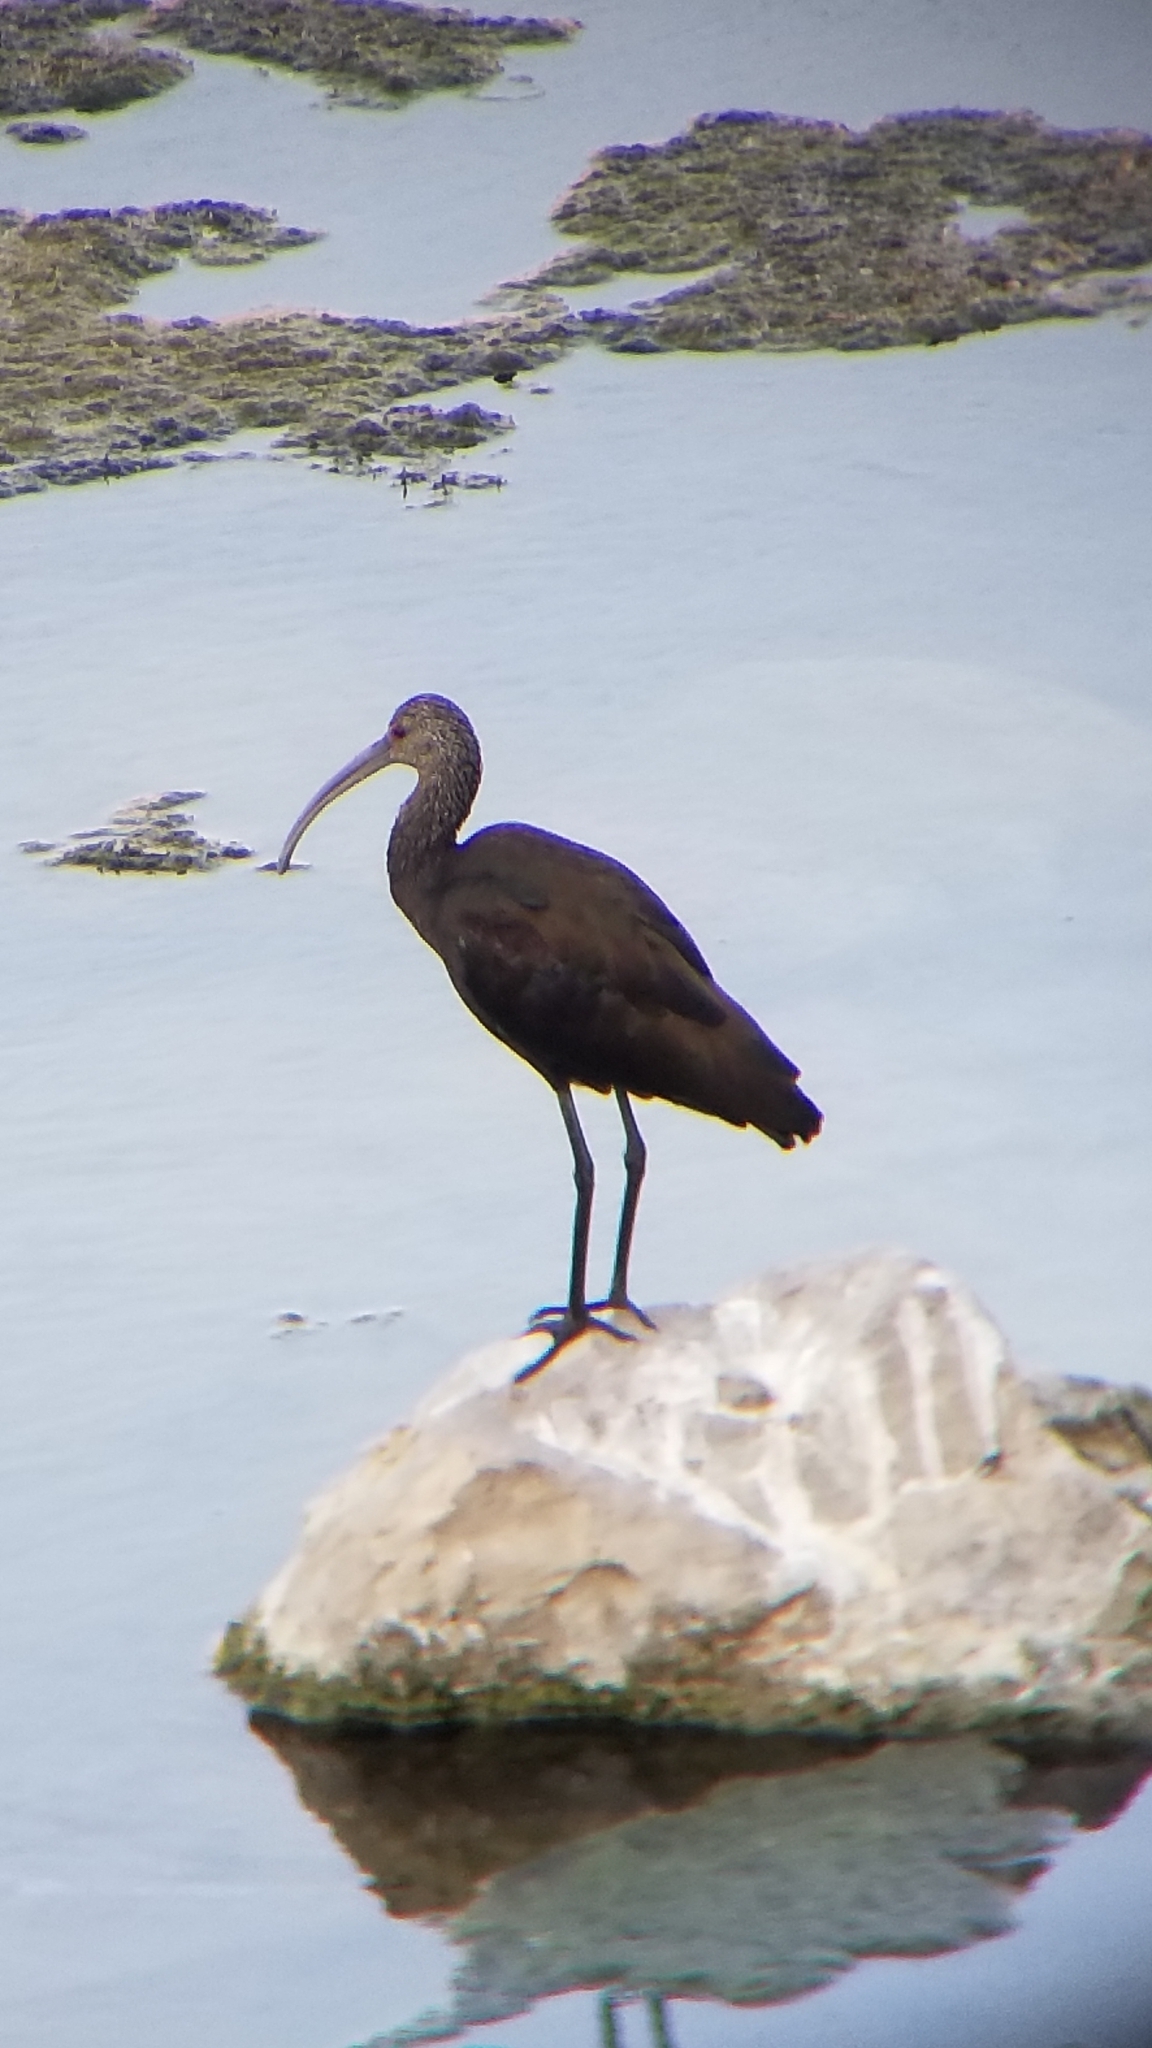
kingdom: Animalia
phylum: Chordata
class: Aves
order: Pelecaniformes
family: Threskiornithidae
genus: Plegadis
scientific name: Plegadis chihi
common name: White-faced ibis
